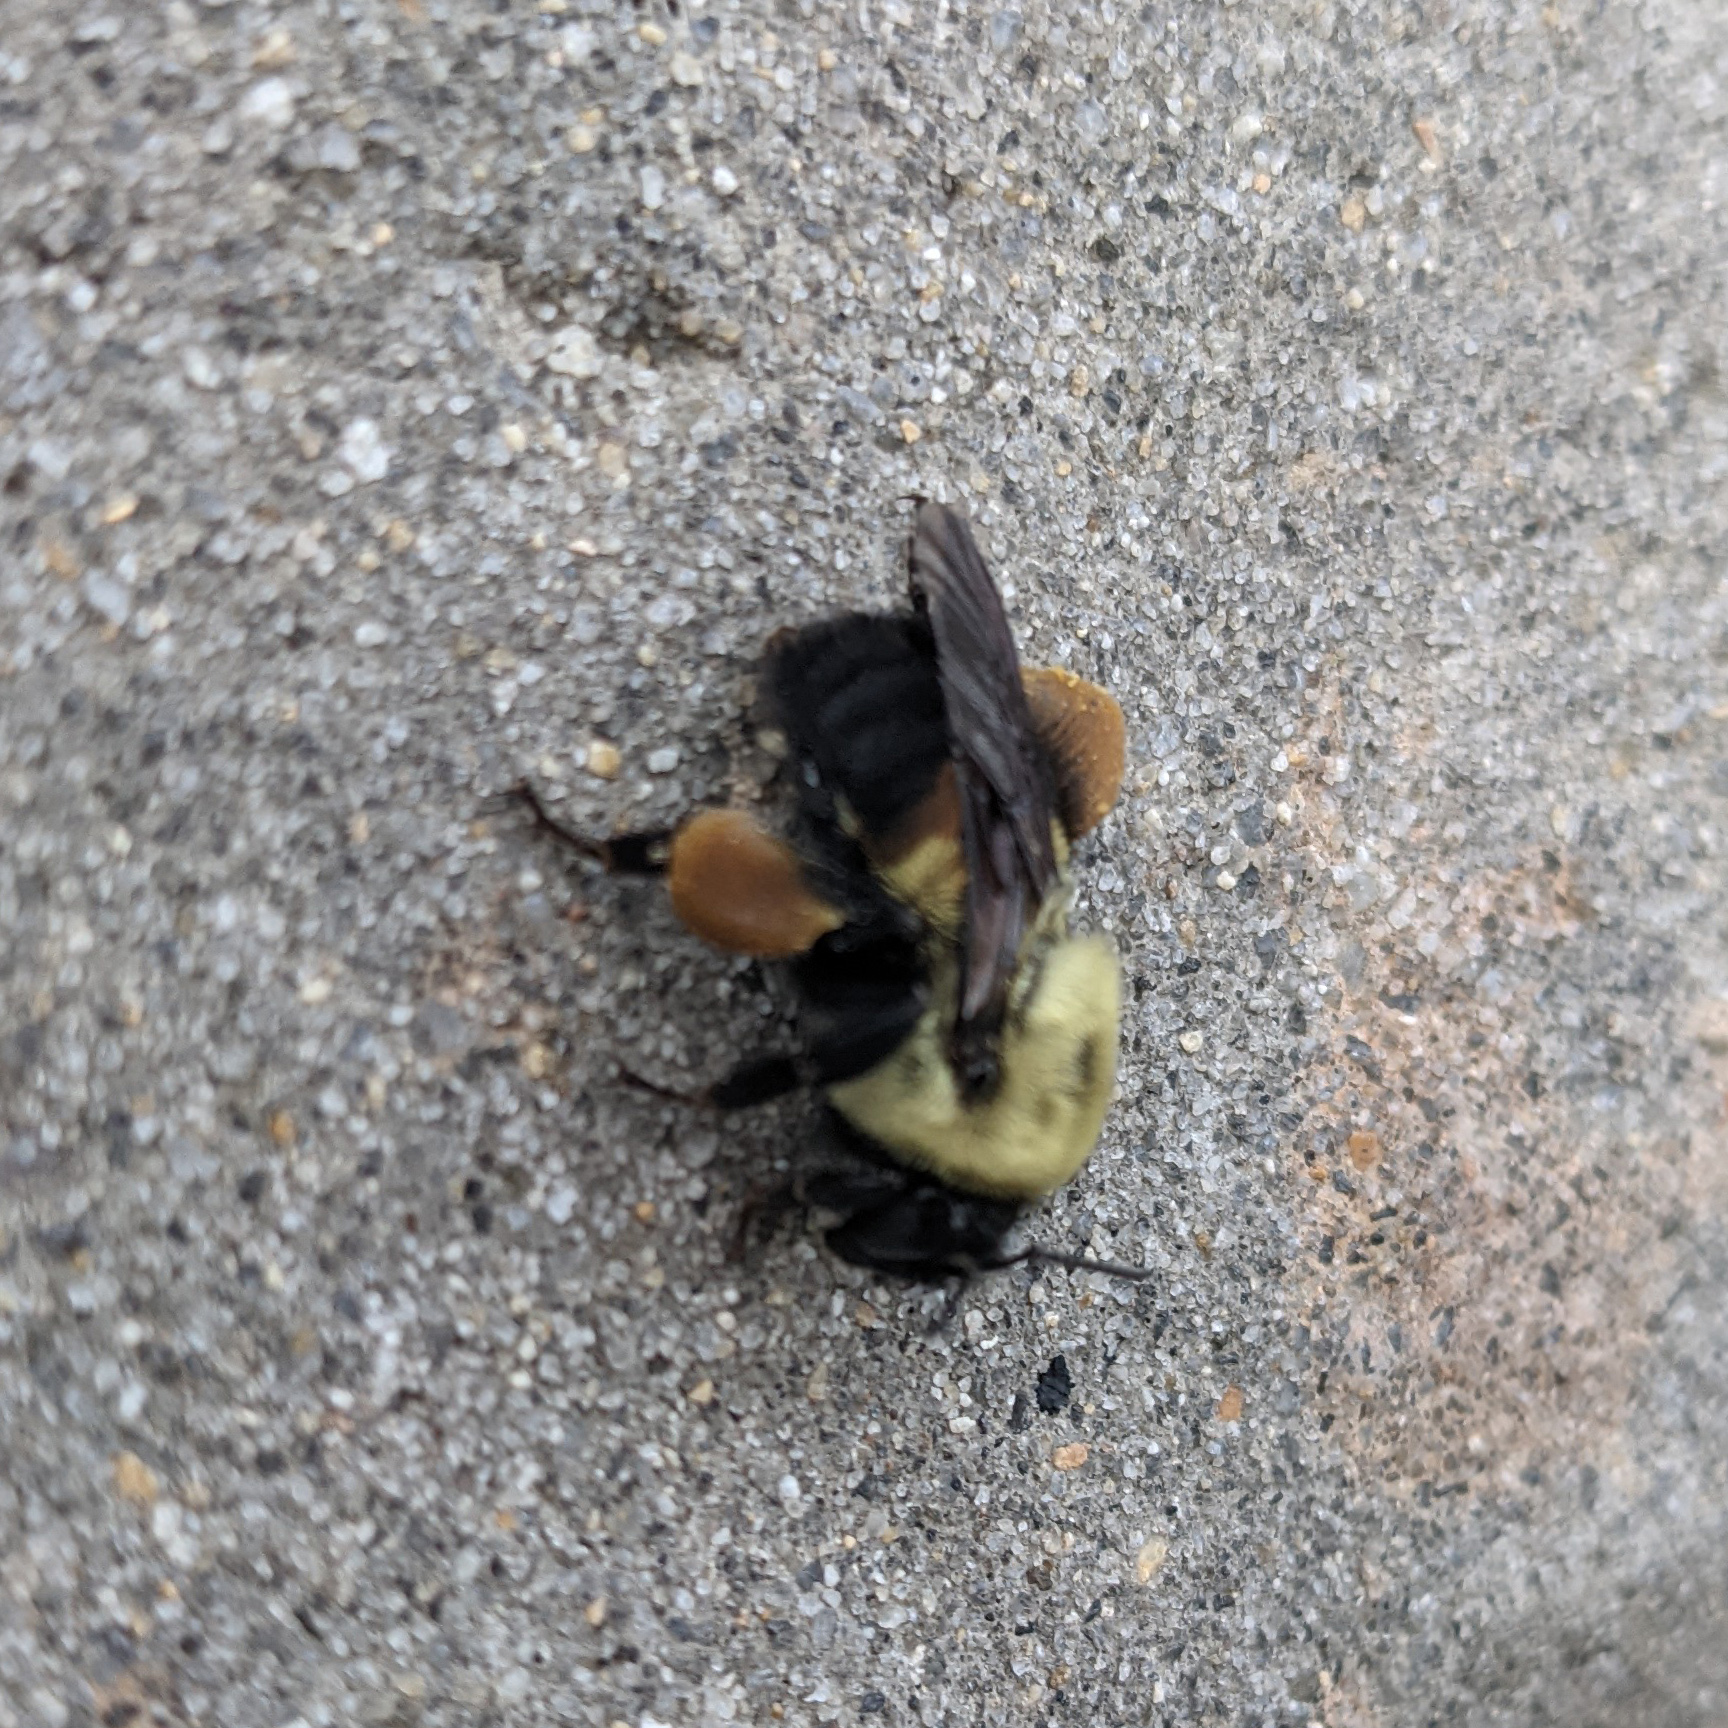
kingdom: Animalia
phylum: Arthropoda
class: Insecta
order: Hymenoptera
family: Apidae
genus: Bombus
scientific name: Bombus griseocollis
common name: Brown-belted bumble bee
